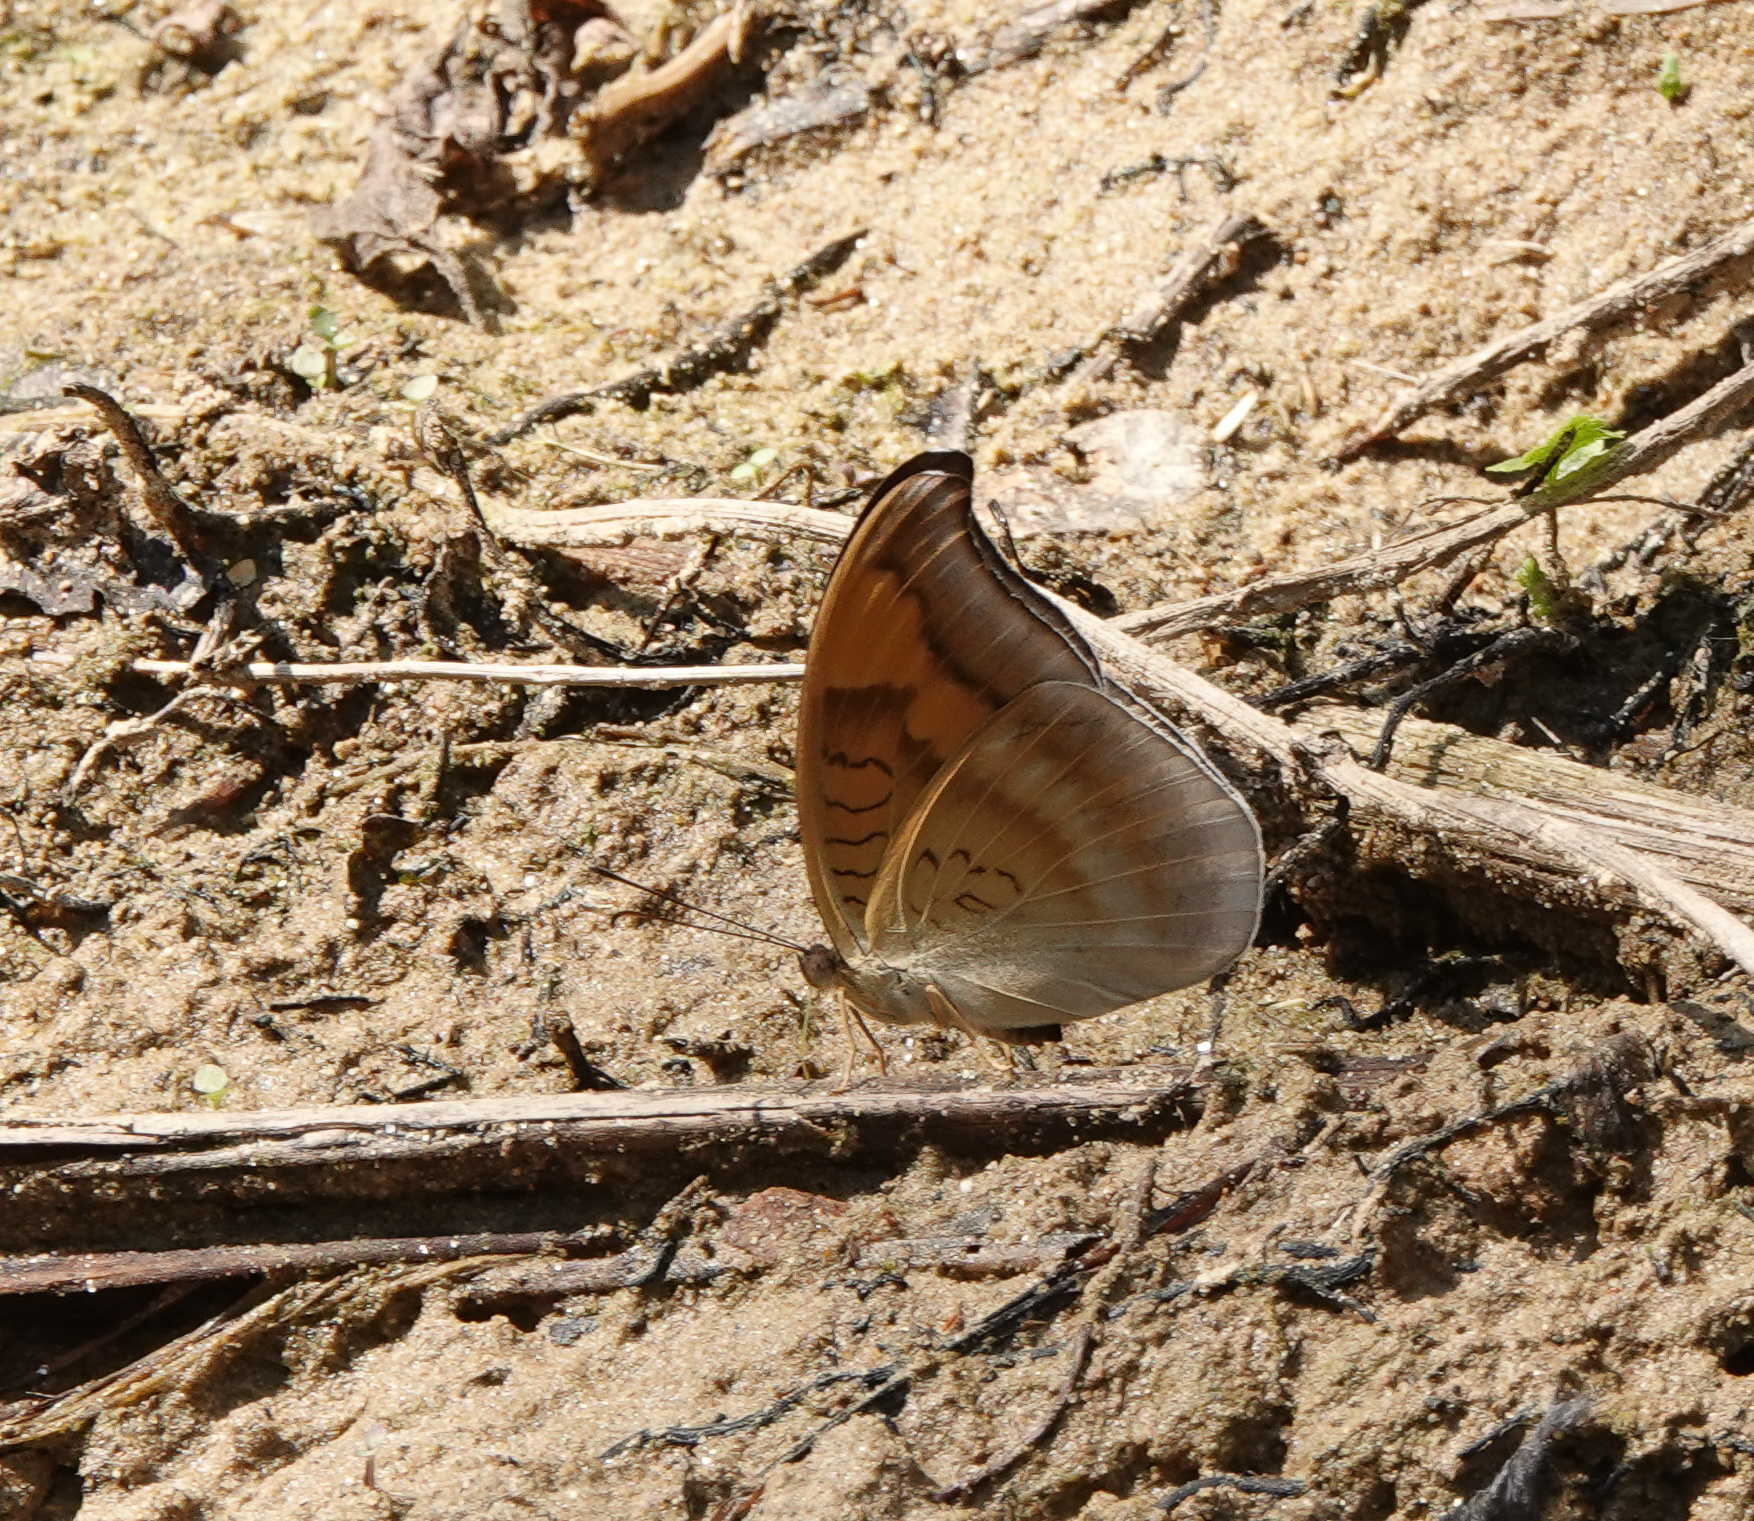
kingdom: Animalia
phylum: Arthropoda
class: Insecta
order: Lepidoptera
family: Nymphalidae
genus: Tanaecia
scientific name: Tanaecia lepidea
